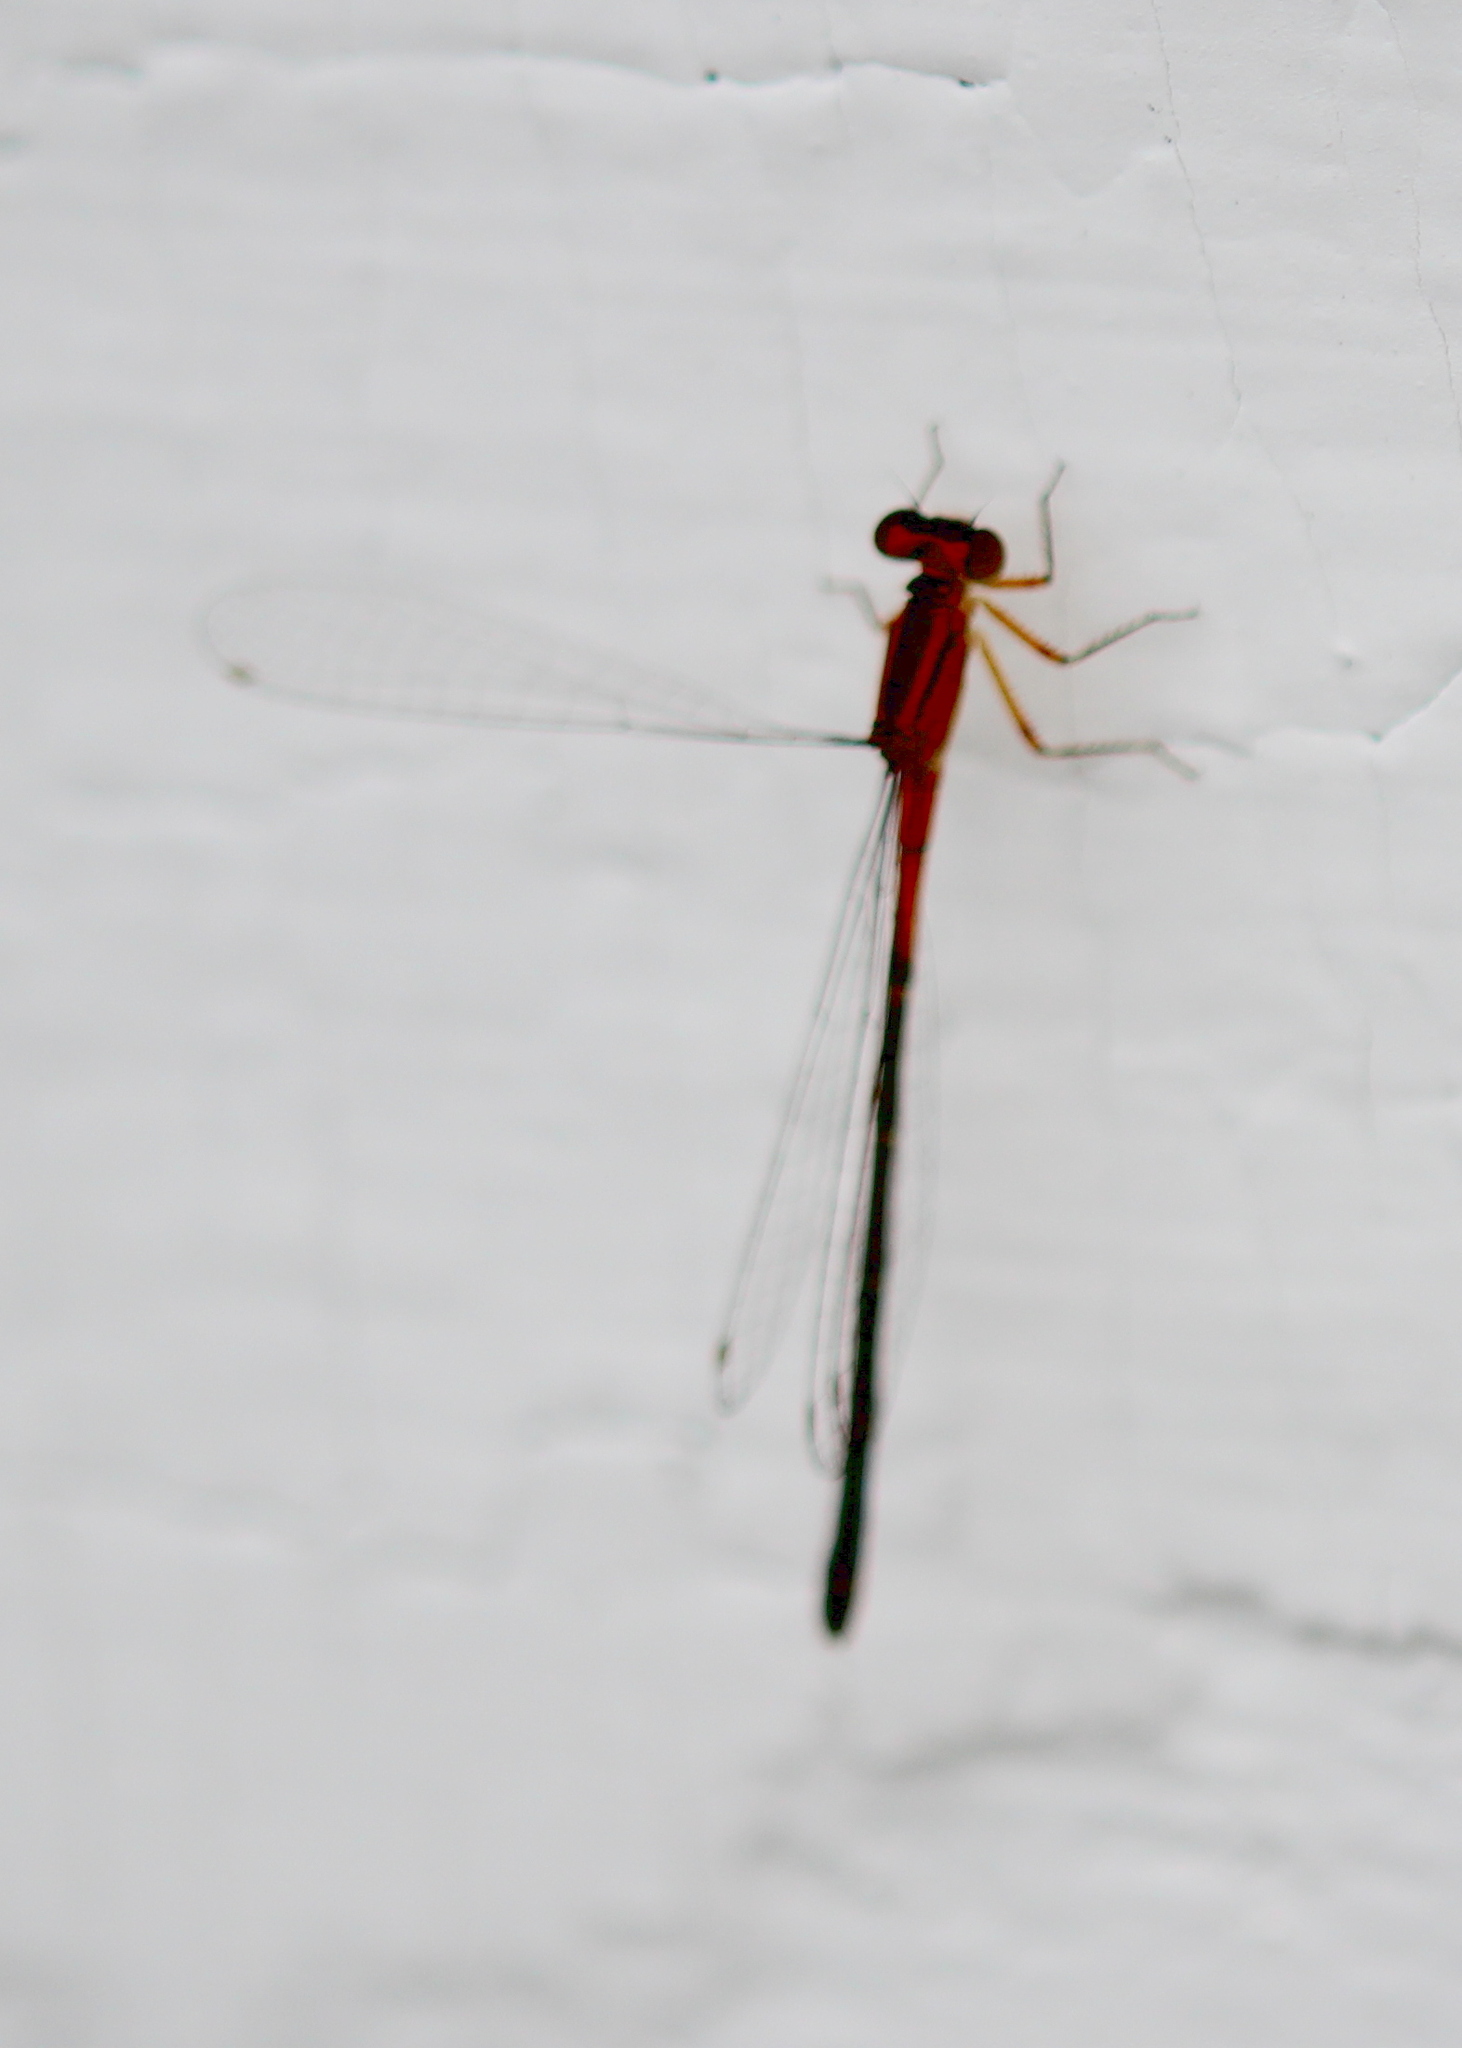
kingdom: Animalia
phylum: Arthropoda
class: Insecta
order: Odonata
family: Coenagrionidae
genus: Ischnura
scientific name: Ischnura verticalis
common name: Eastern forktail
